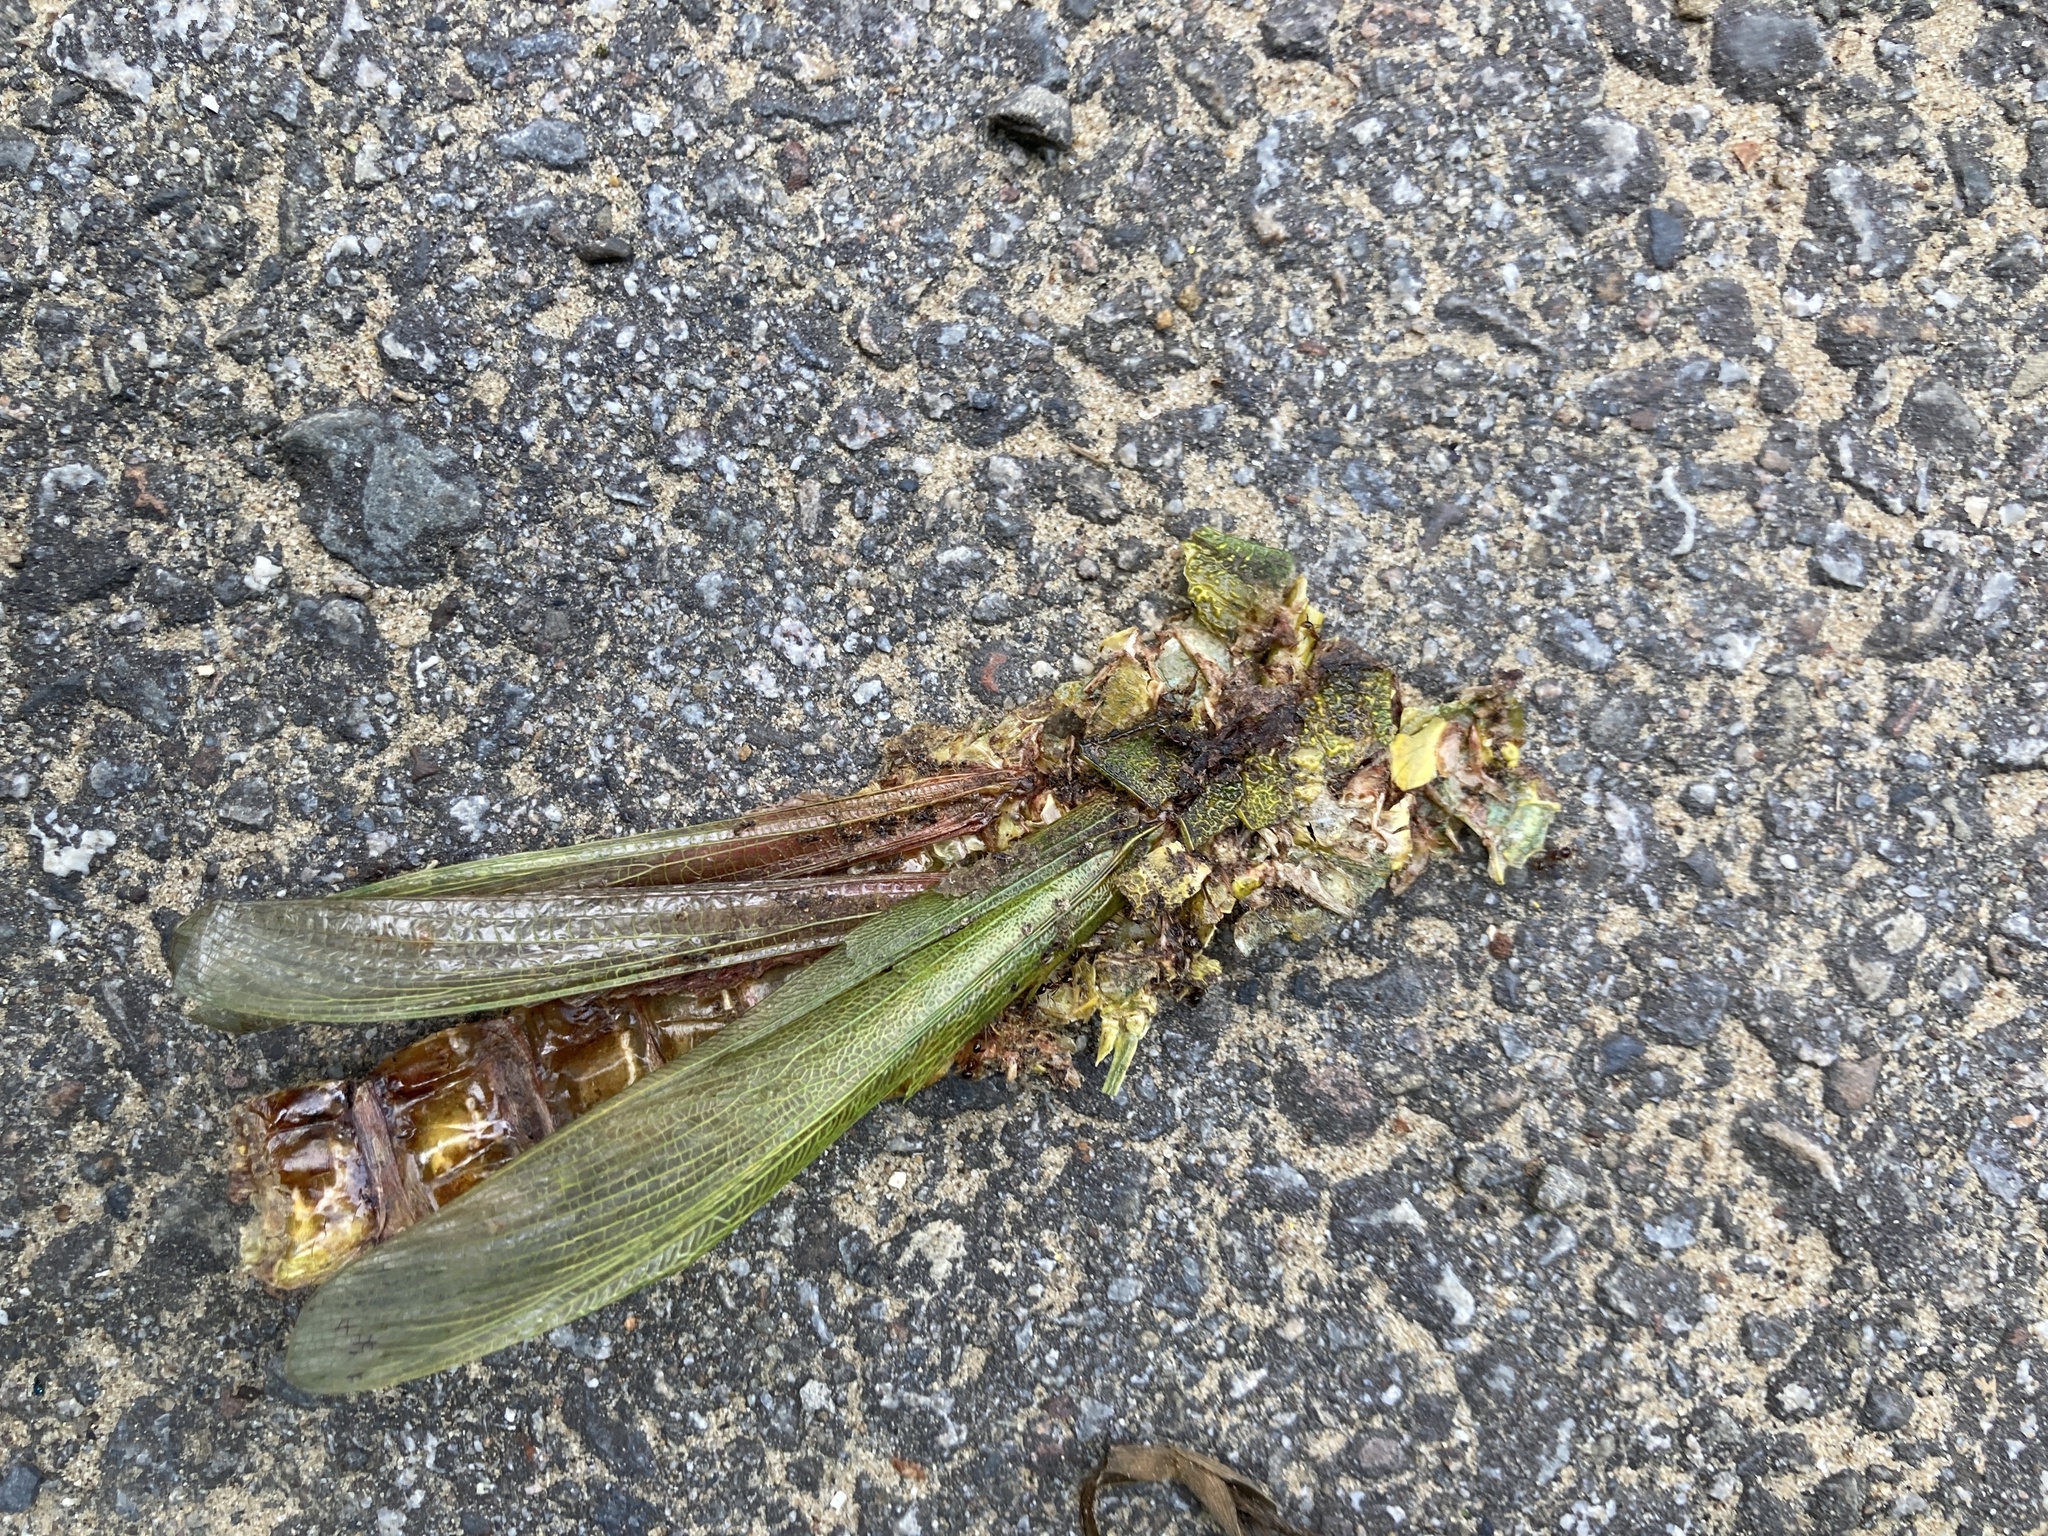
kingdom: Animalia
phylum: Arthropoda
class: Insecta
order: Orthoptera
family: Acrididae
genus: Chondracris
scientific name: Chondracris rosea
